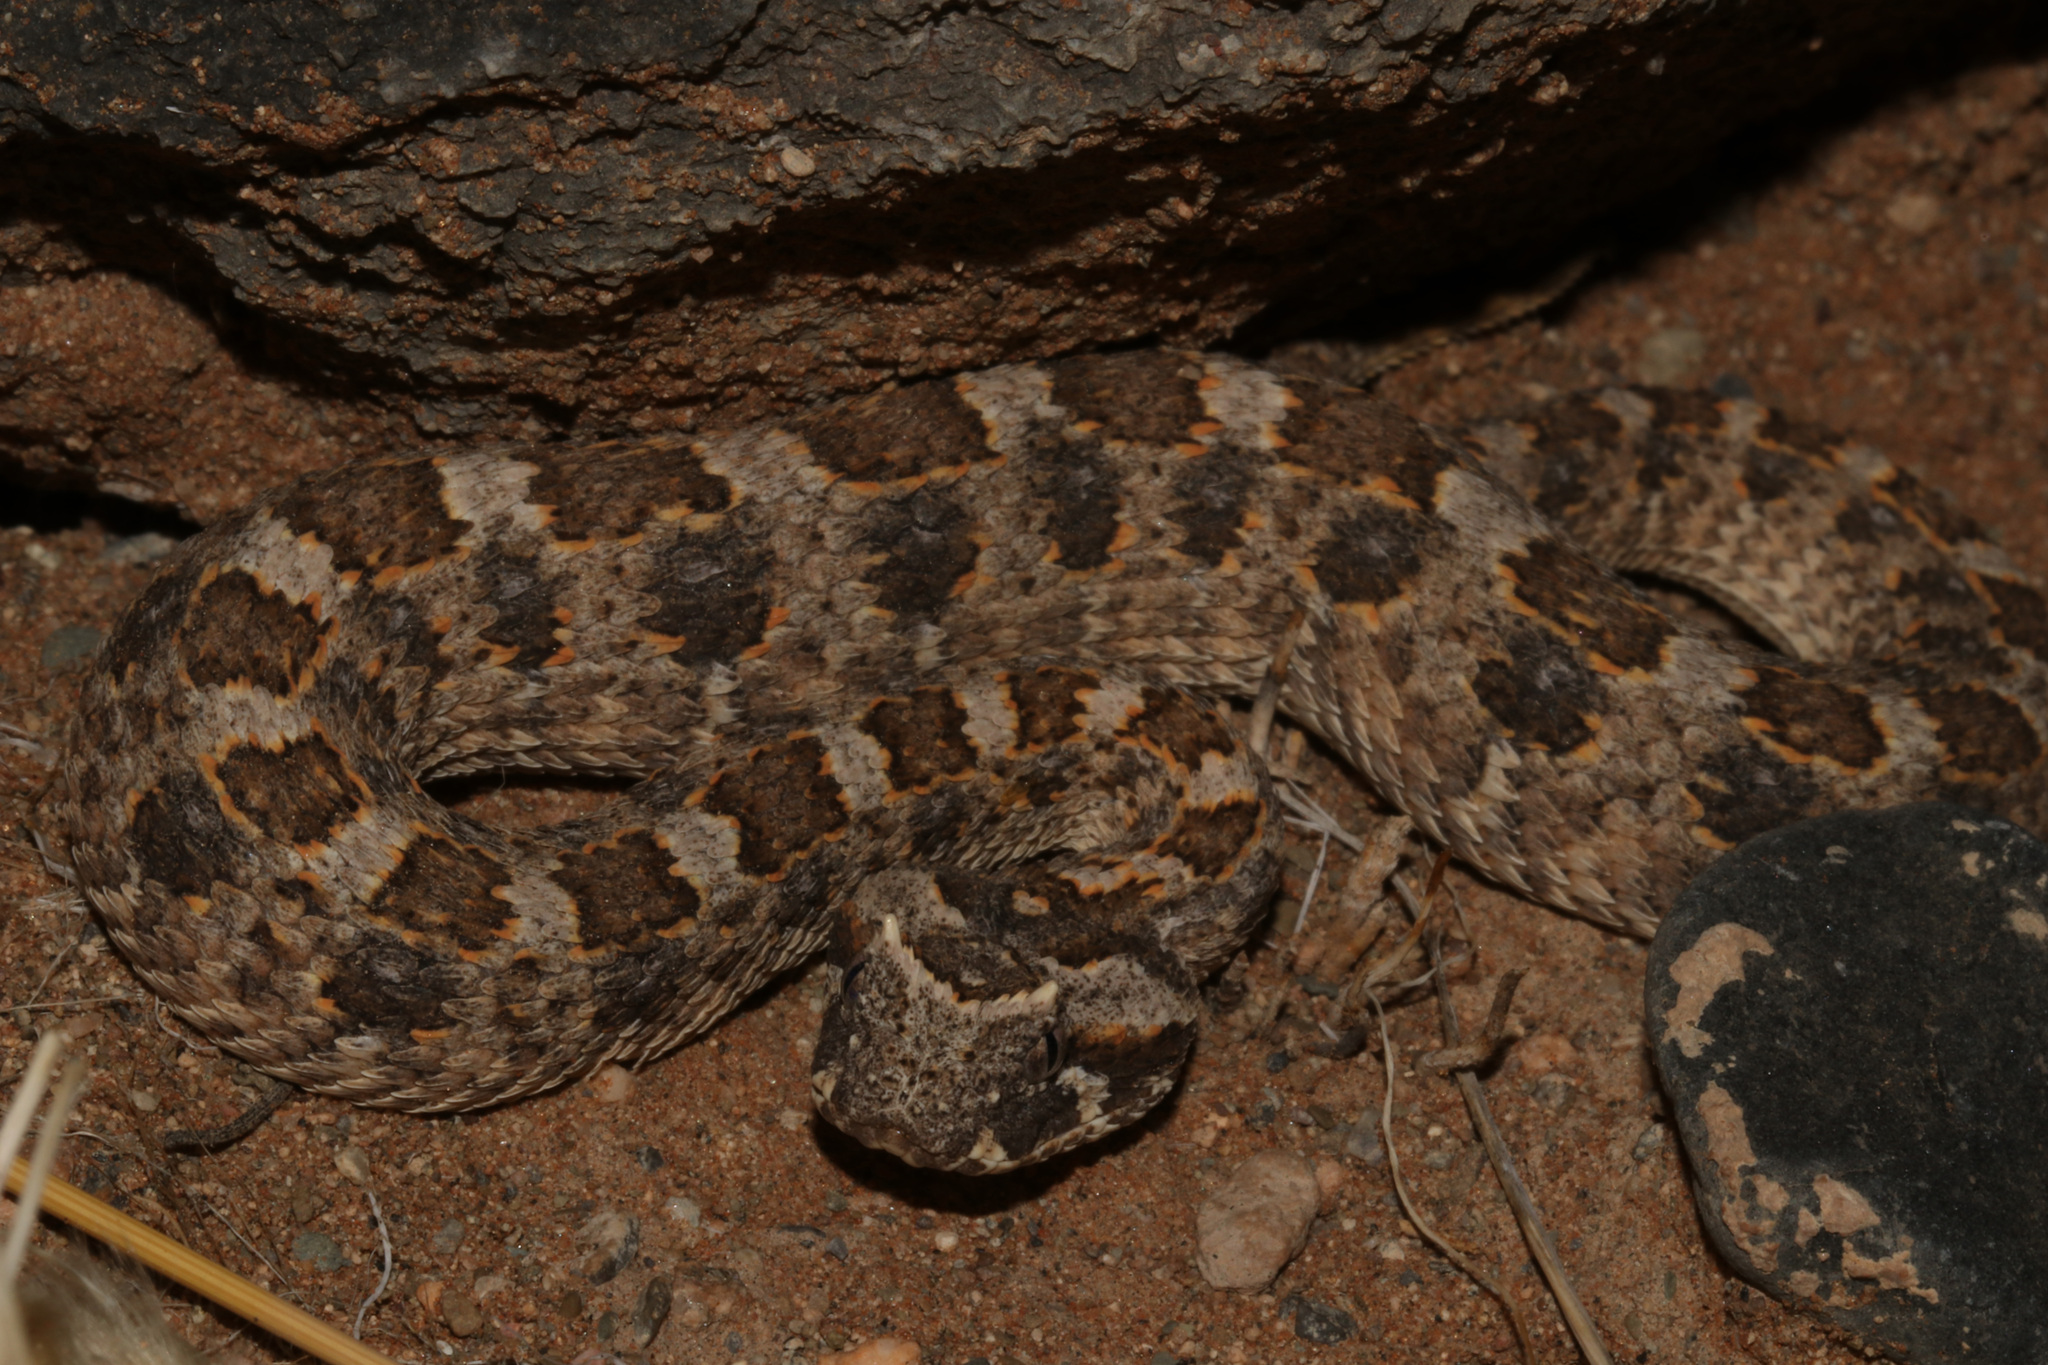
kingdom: Animalia
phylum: Chordata
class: Squamata
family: Viperidae
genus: Bitis
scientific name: Bitis caudalis
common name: Horned adder
